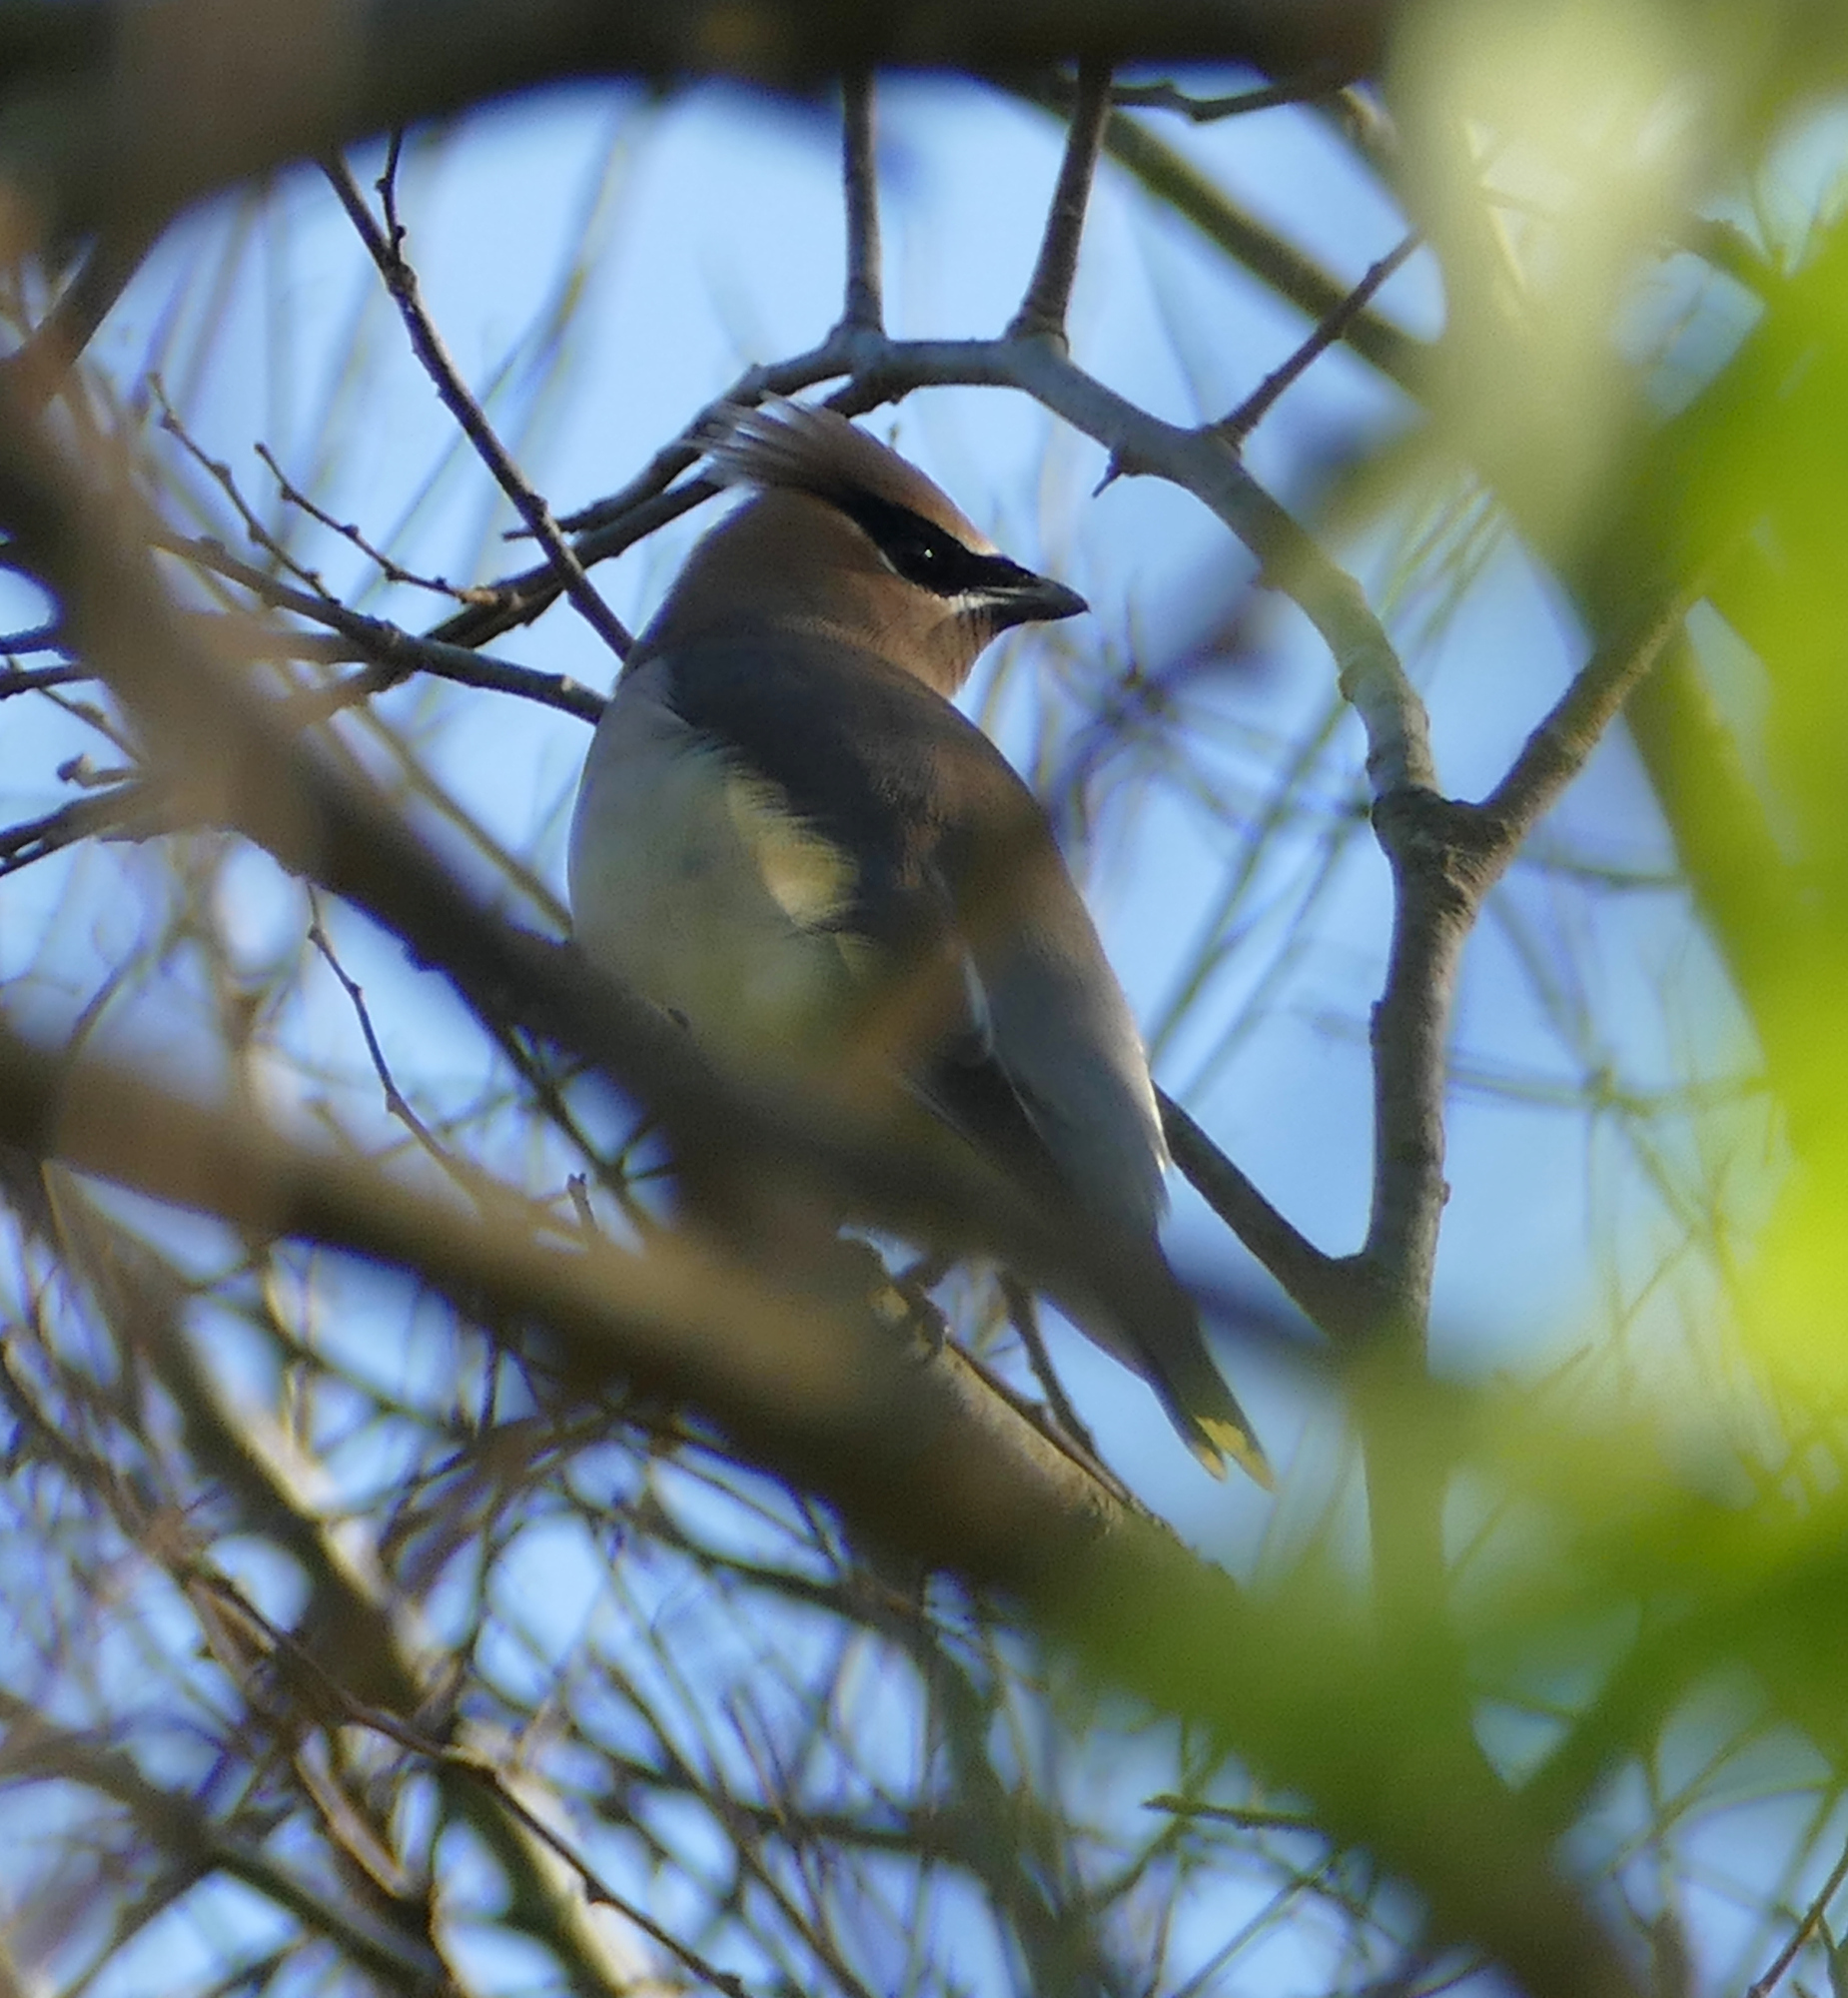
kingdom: Animalia
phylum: Chordata
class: Aves
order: Passeriformes
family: Bombycillidae
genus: Bombycilla
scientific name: Bombycilla cedrorum
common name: Cedar waxwing
